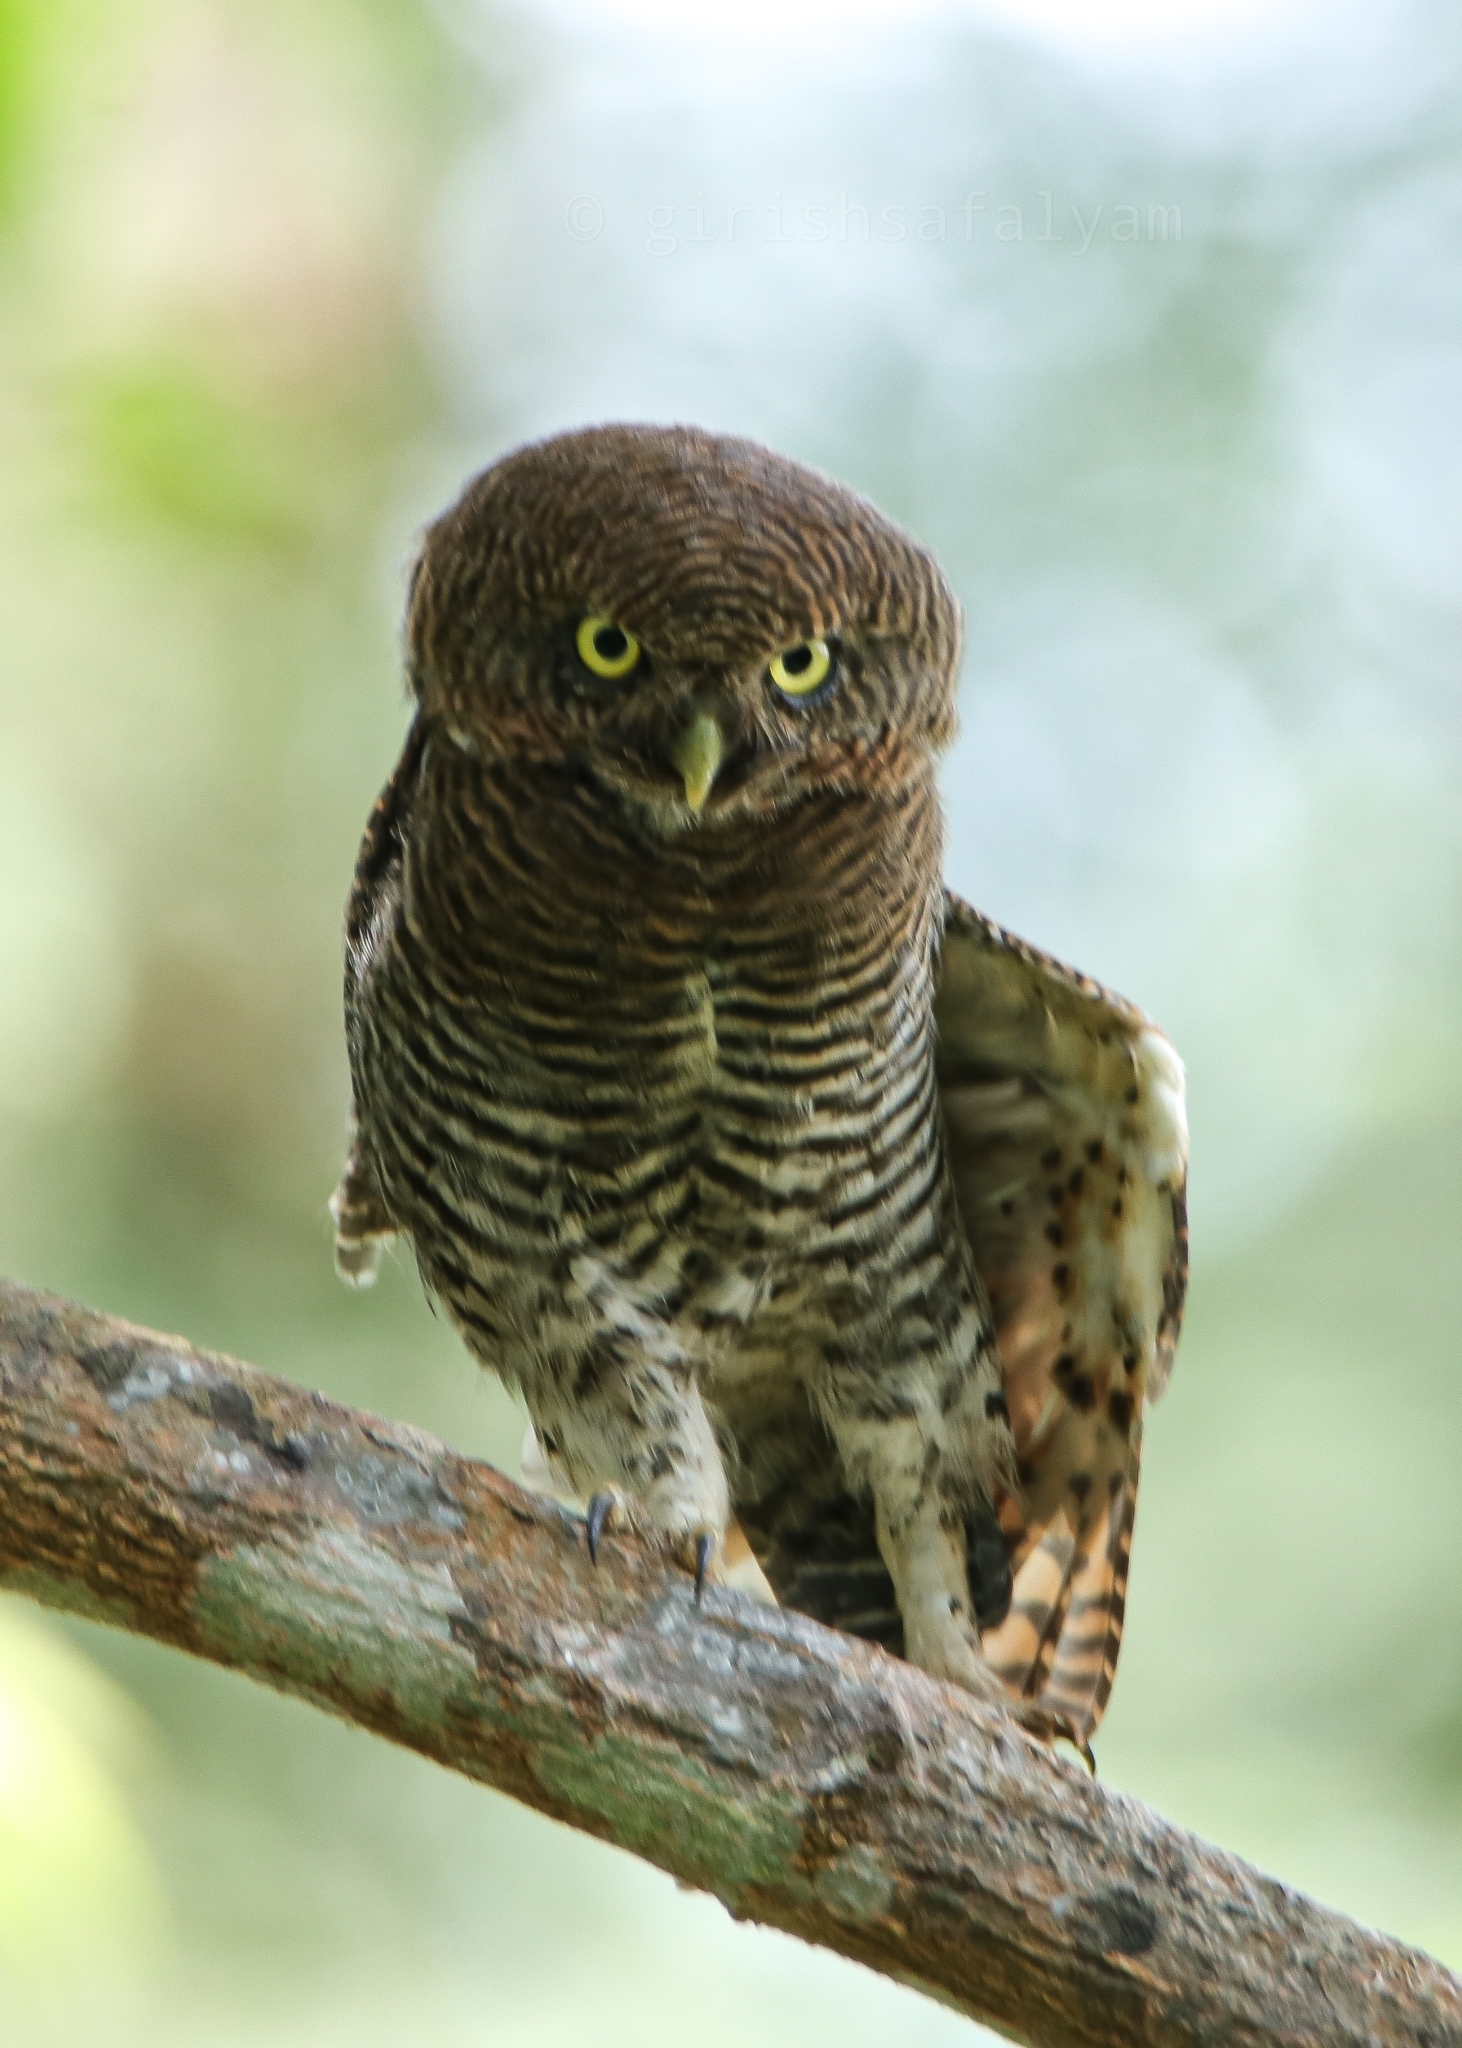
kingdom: Animalia
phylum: Chordata
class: Aves
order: Strigiformes
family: Strigidae
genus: Glaucidium
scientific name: Glaucidium radiatum
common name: Jungle owlet
